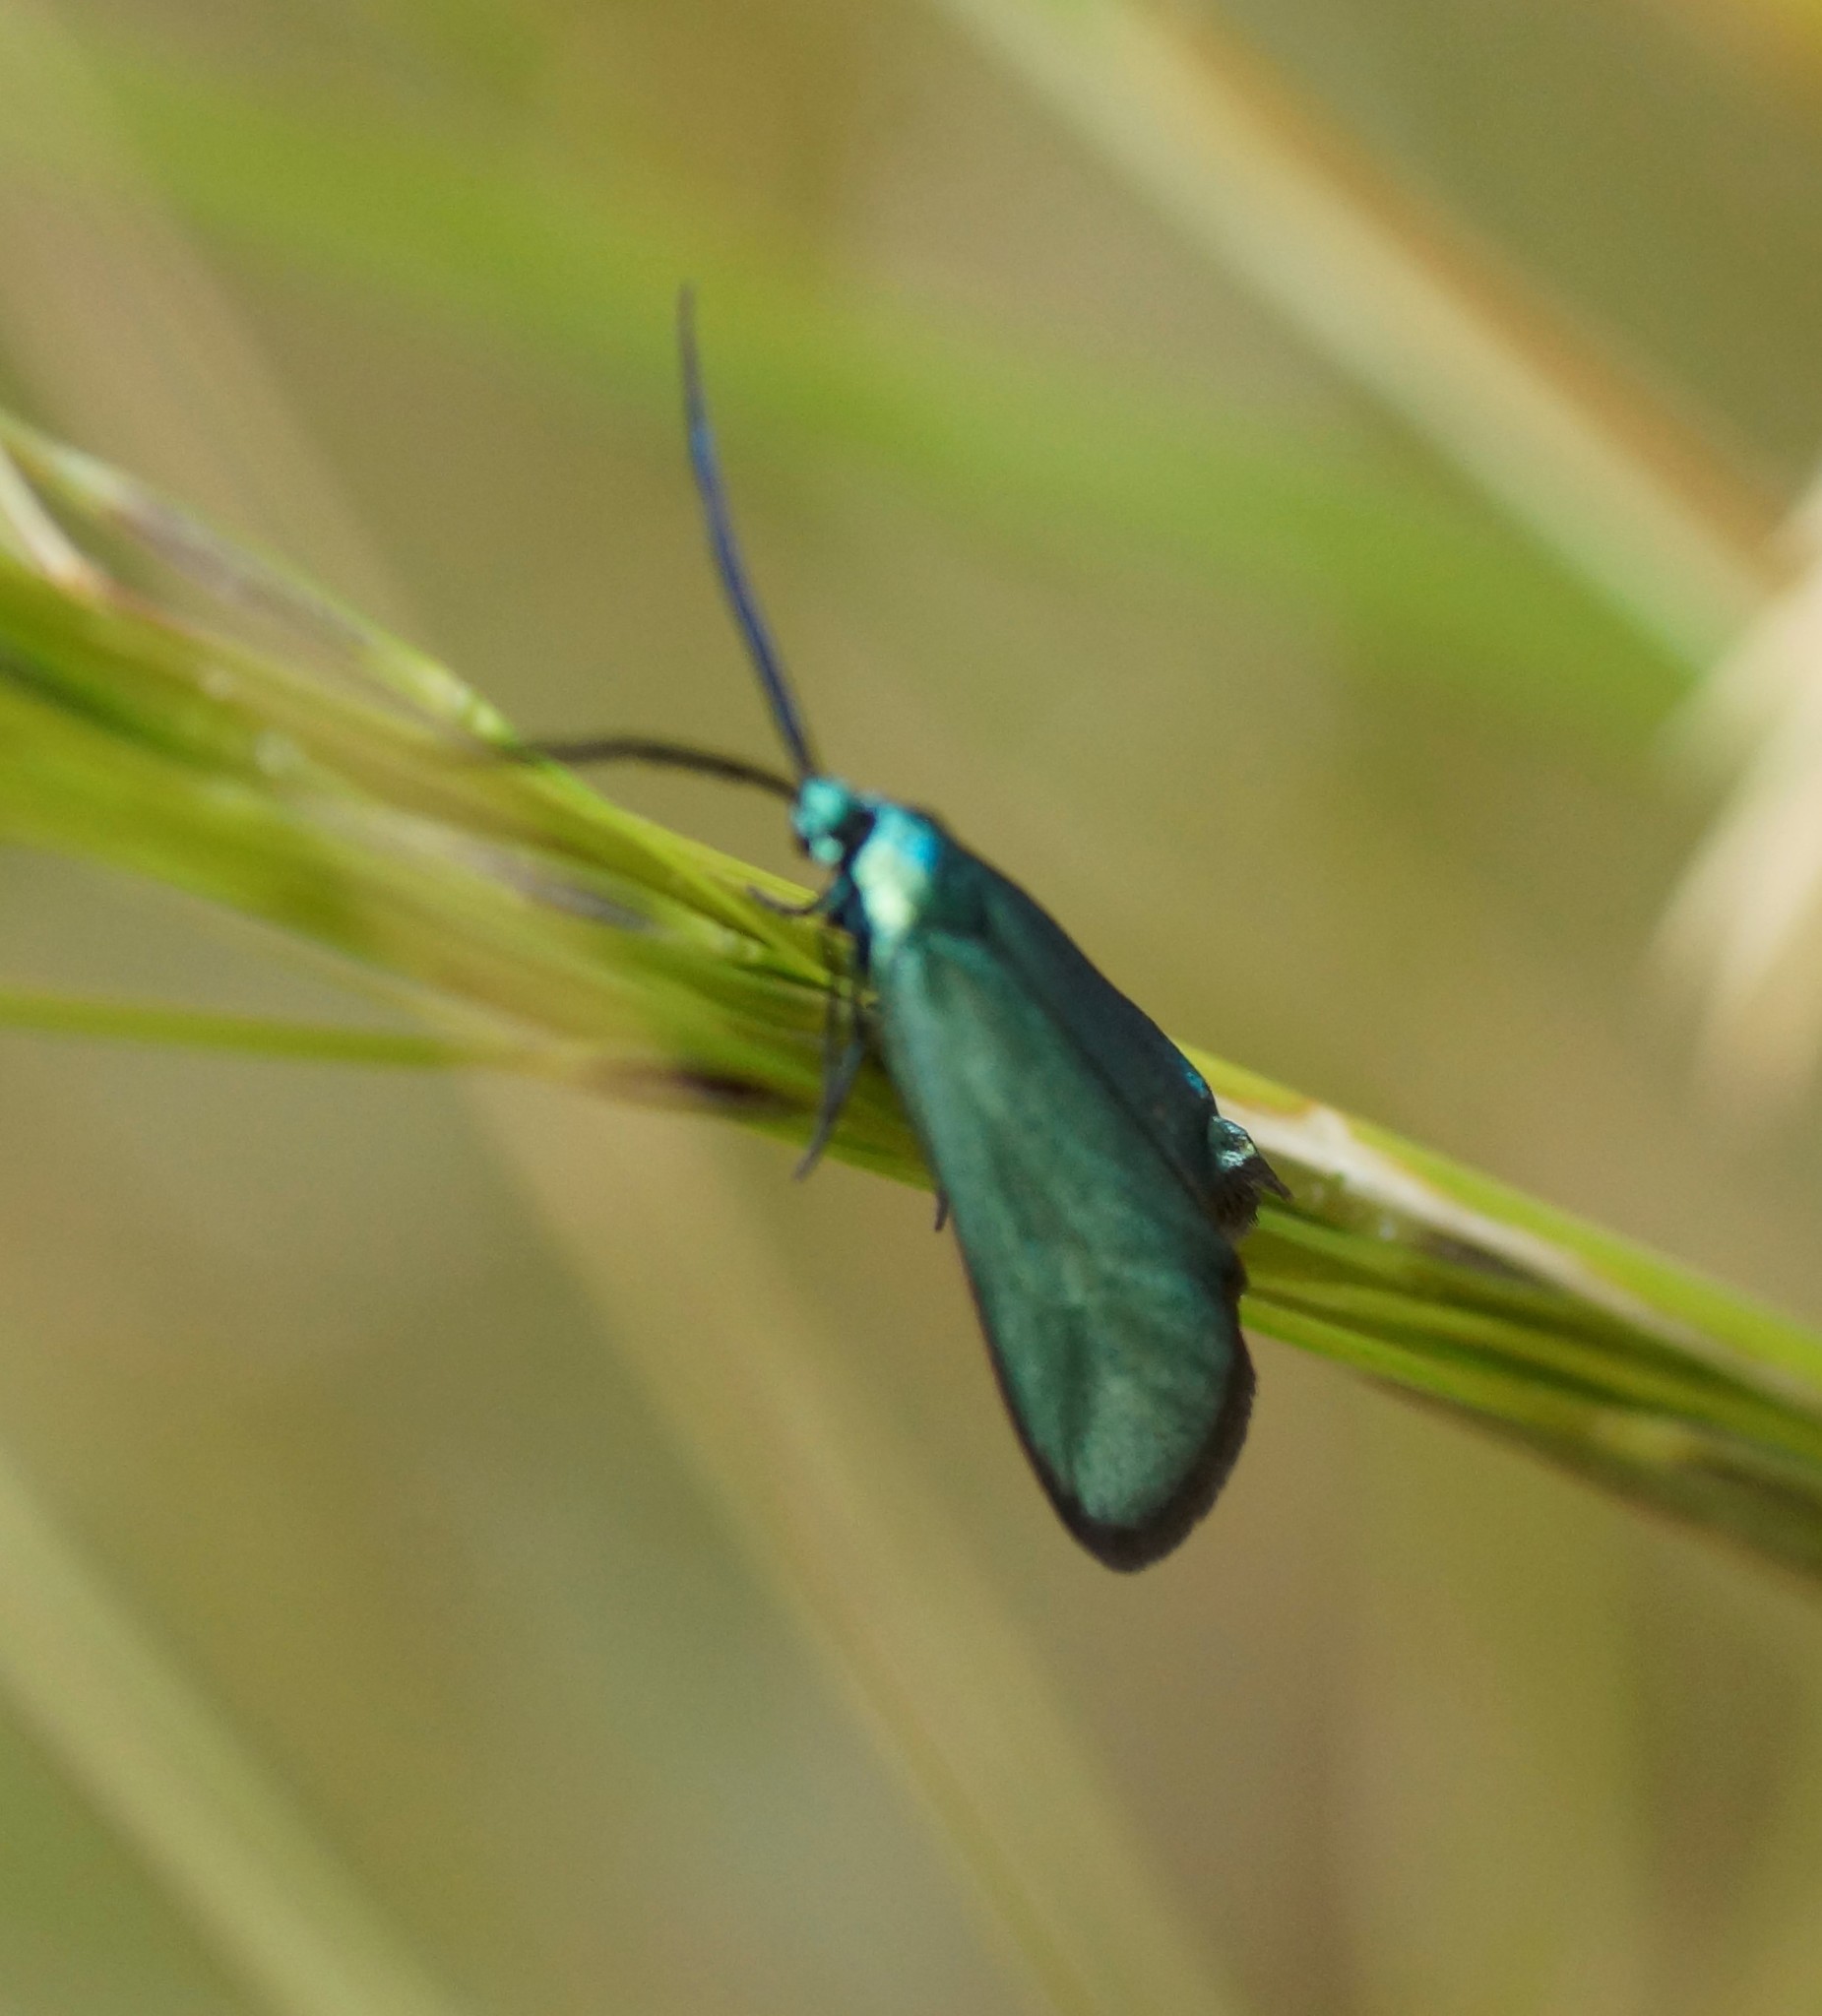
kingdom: Animalia
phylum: Arthropoda
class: Insecta
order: Lepidoptera
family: Zygaenidae
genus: Pollanisus
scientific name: Pollanisus viridipulverulenta
